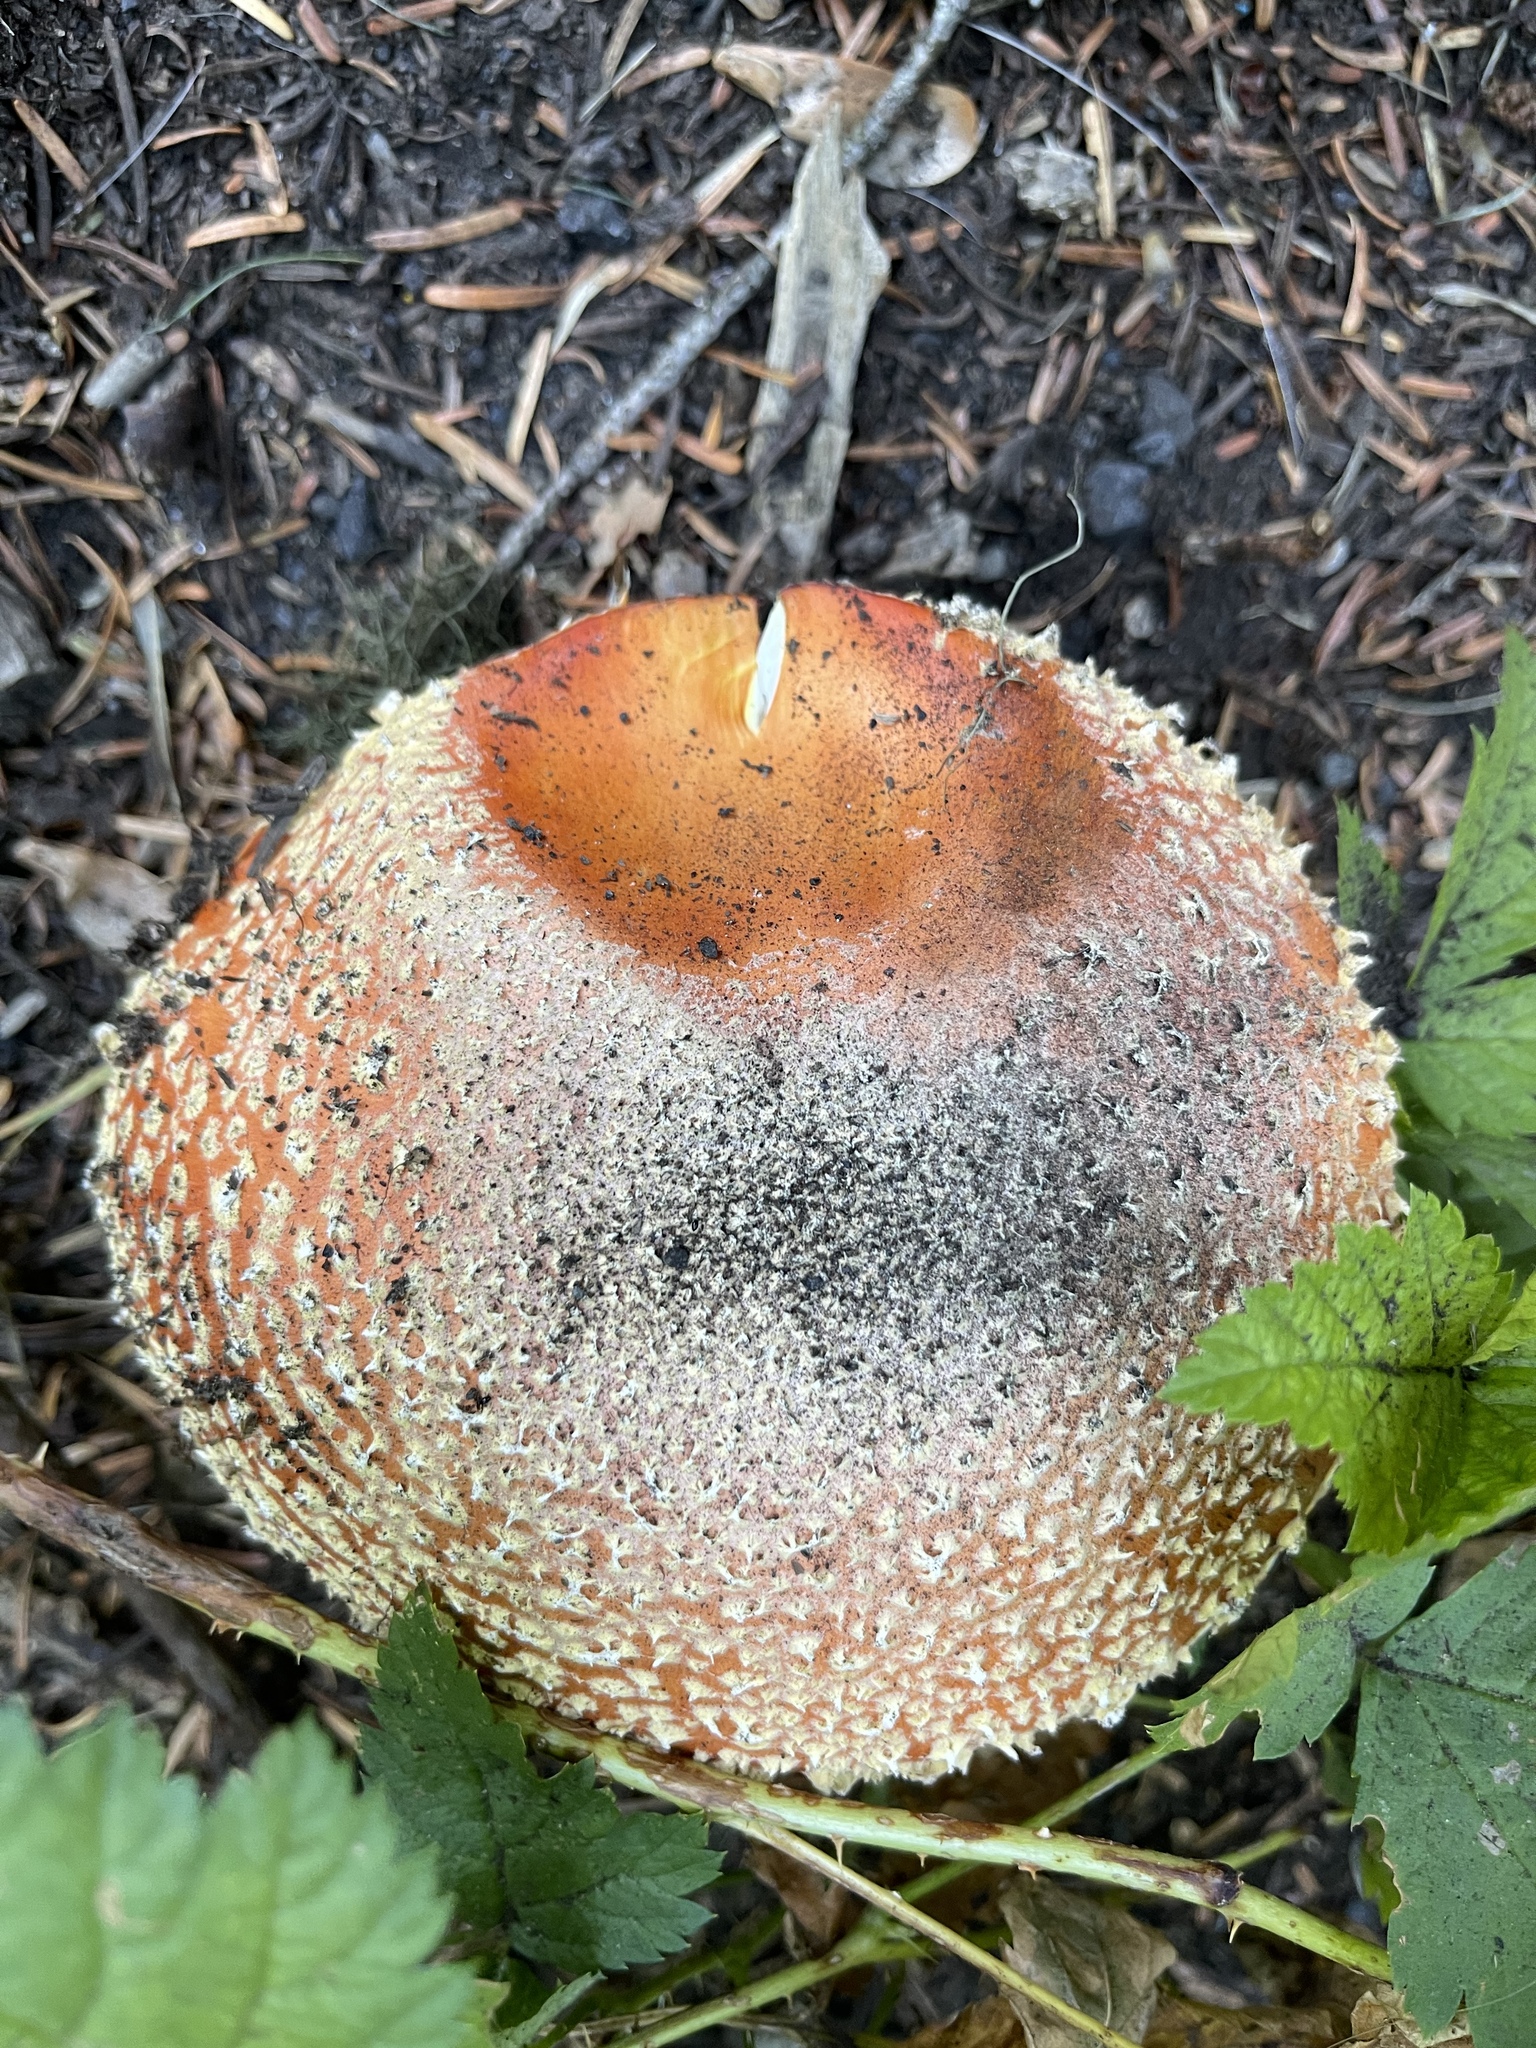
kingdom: Fungi
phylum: Basidiomycota
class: Agaricomycetes
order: Agaricales
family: Amanitaceae
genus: Amanita
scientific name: Amanita muscaria
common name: Fly agaric
